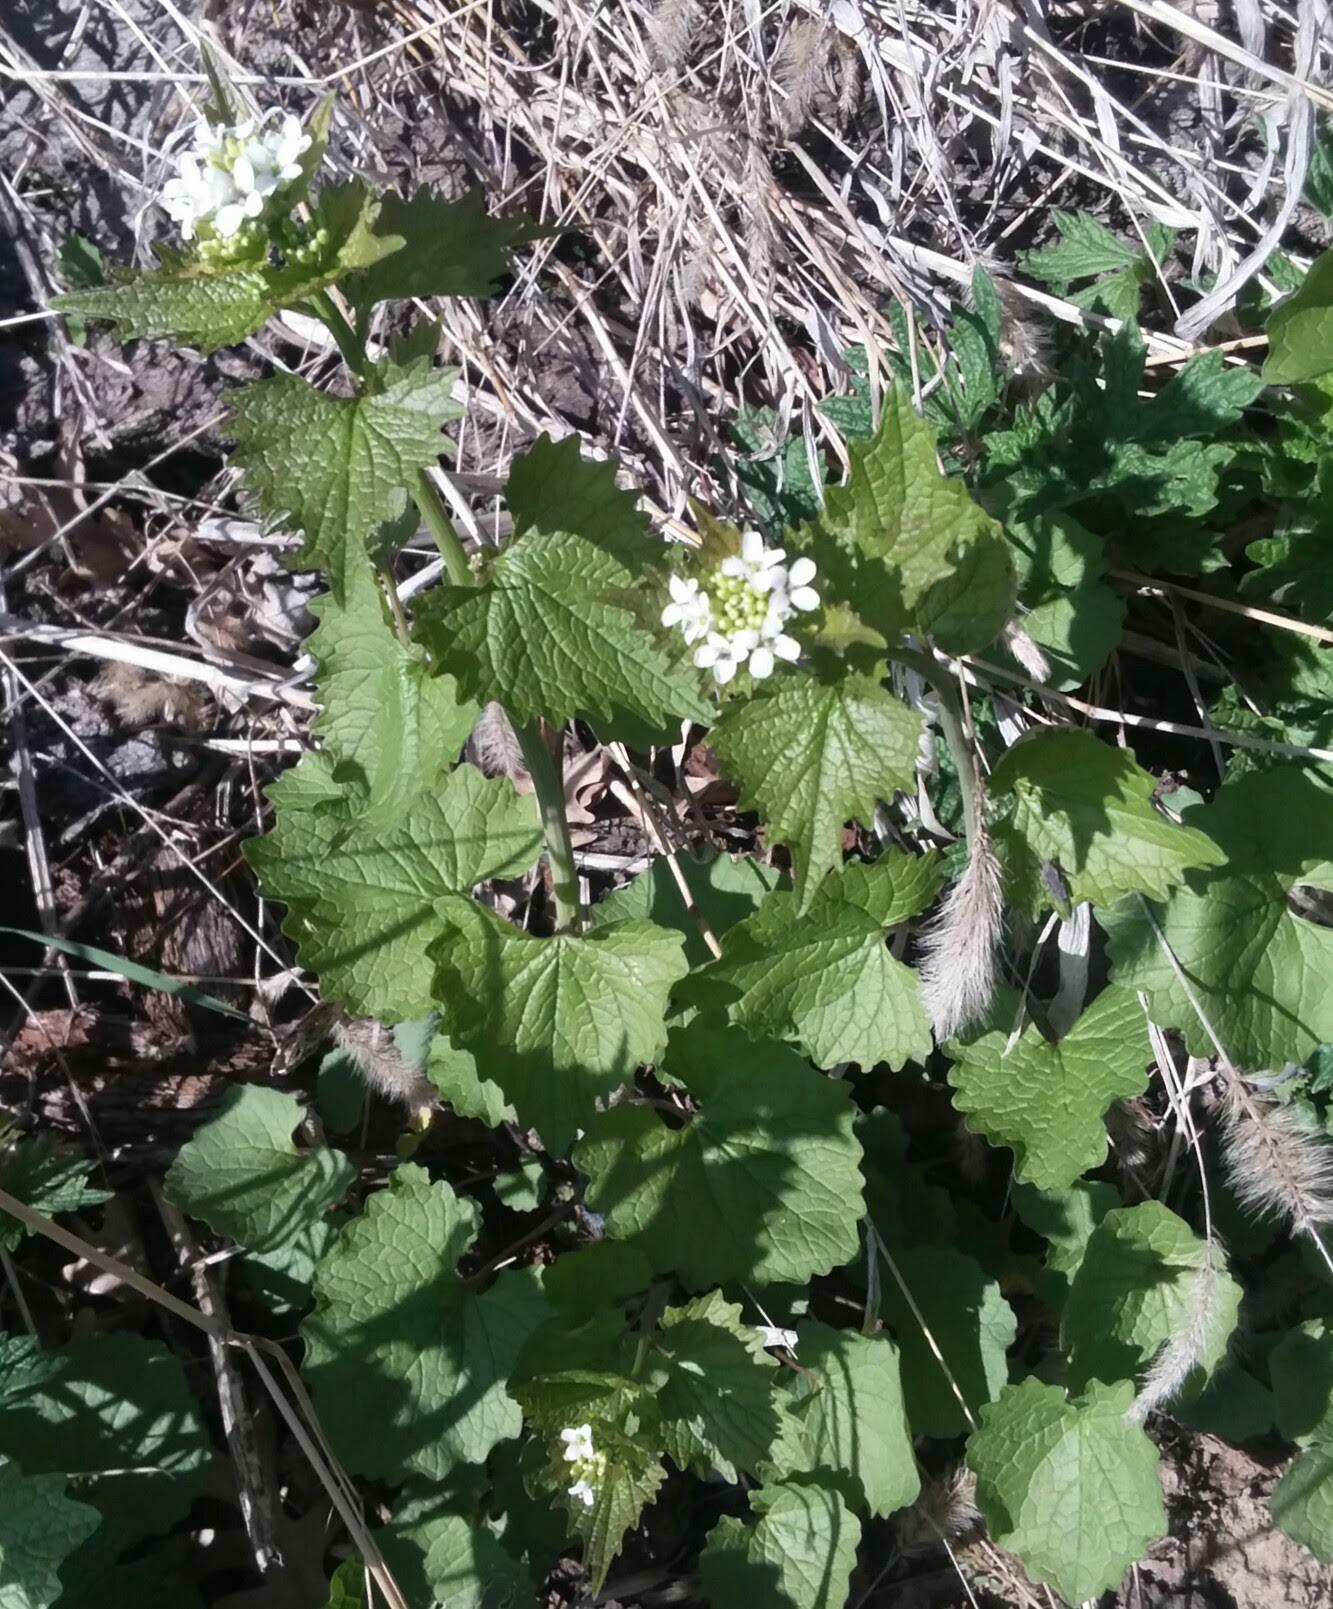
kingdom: Plantae
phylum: Tracheophyta
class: Magnoliopsida
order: Brassicales
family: Brassicaceae
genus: Alliaria
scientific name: Alliaria petiolata
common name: Garlic mustard
